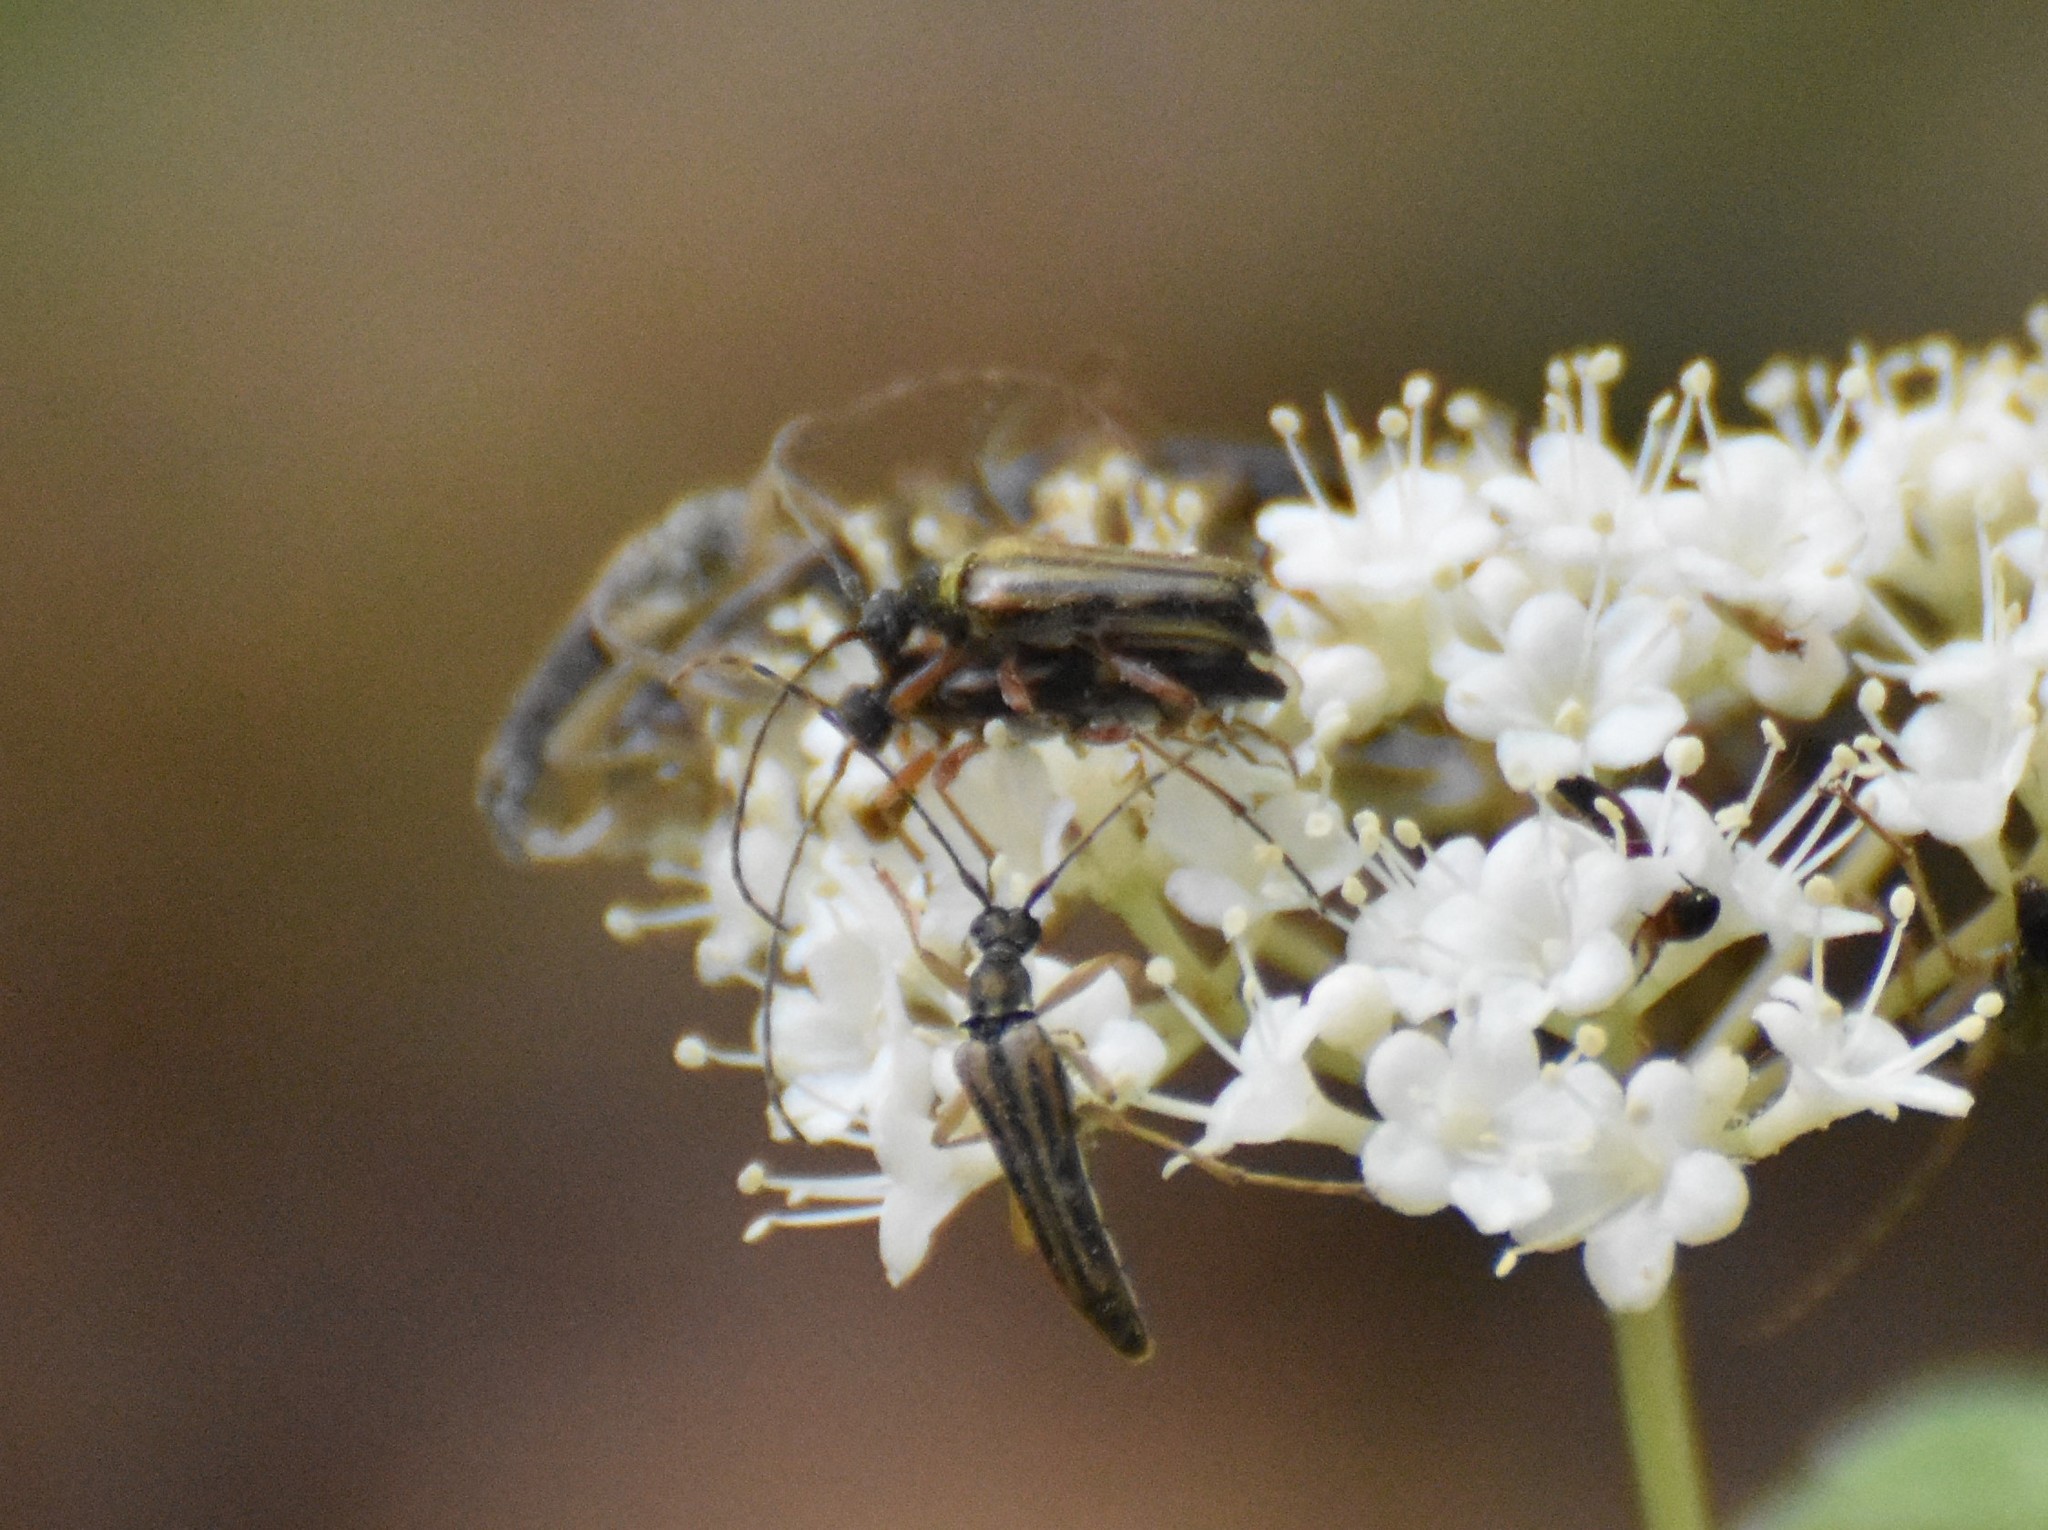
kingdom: Animalia
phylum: Arthropoda
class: Insecta
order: Coleoptera
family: Cerambycidae
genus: Analeptura
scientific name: Analeptura lineola
